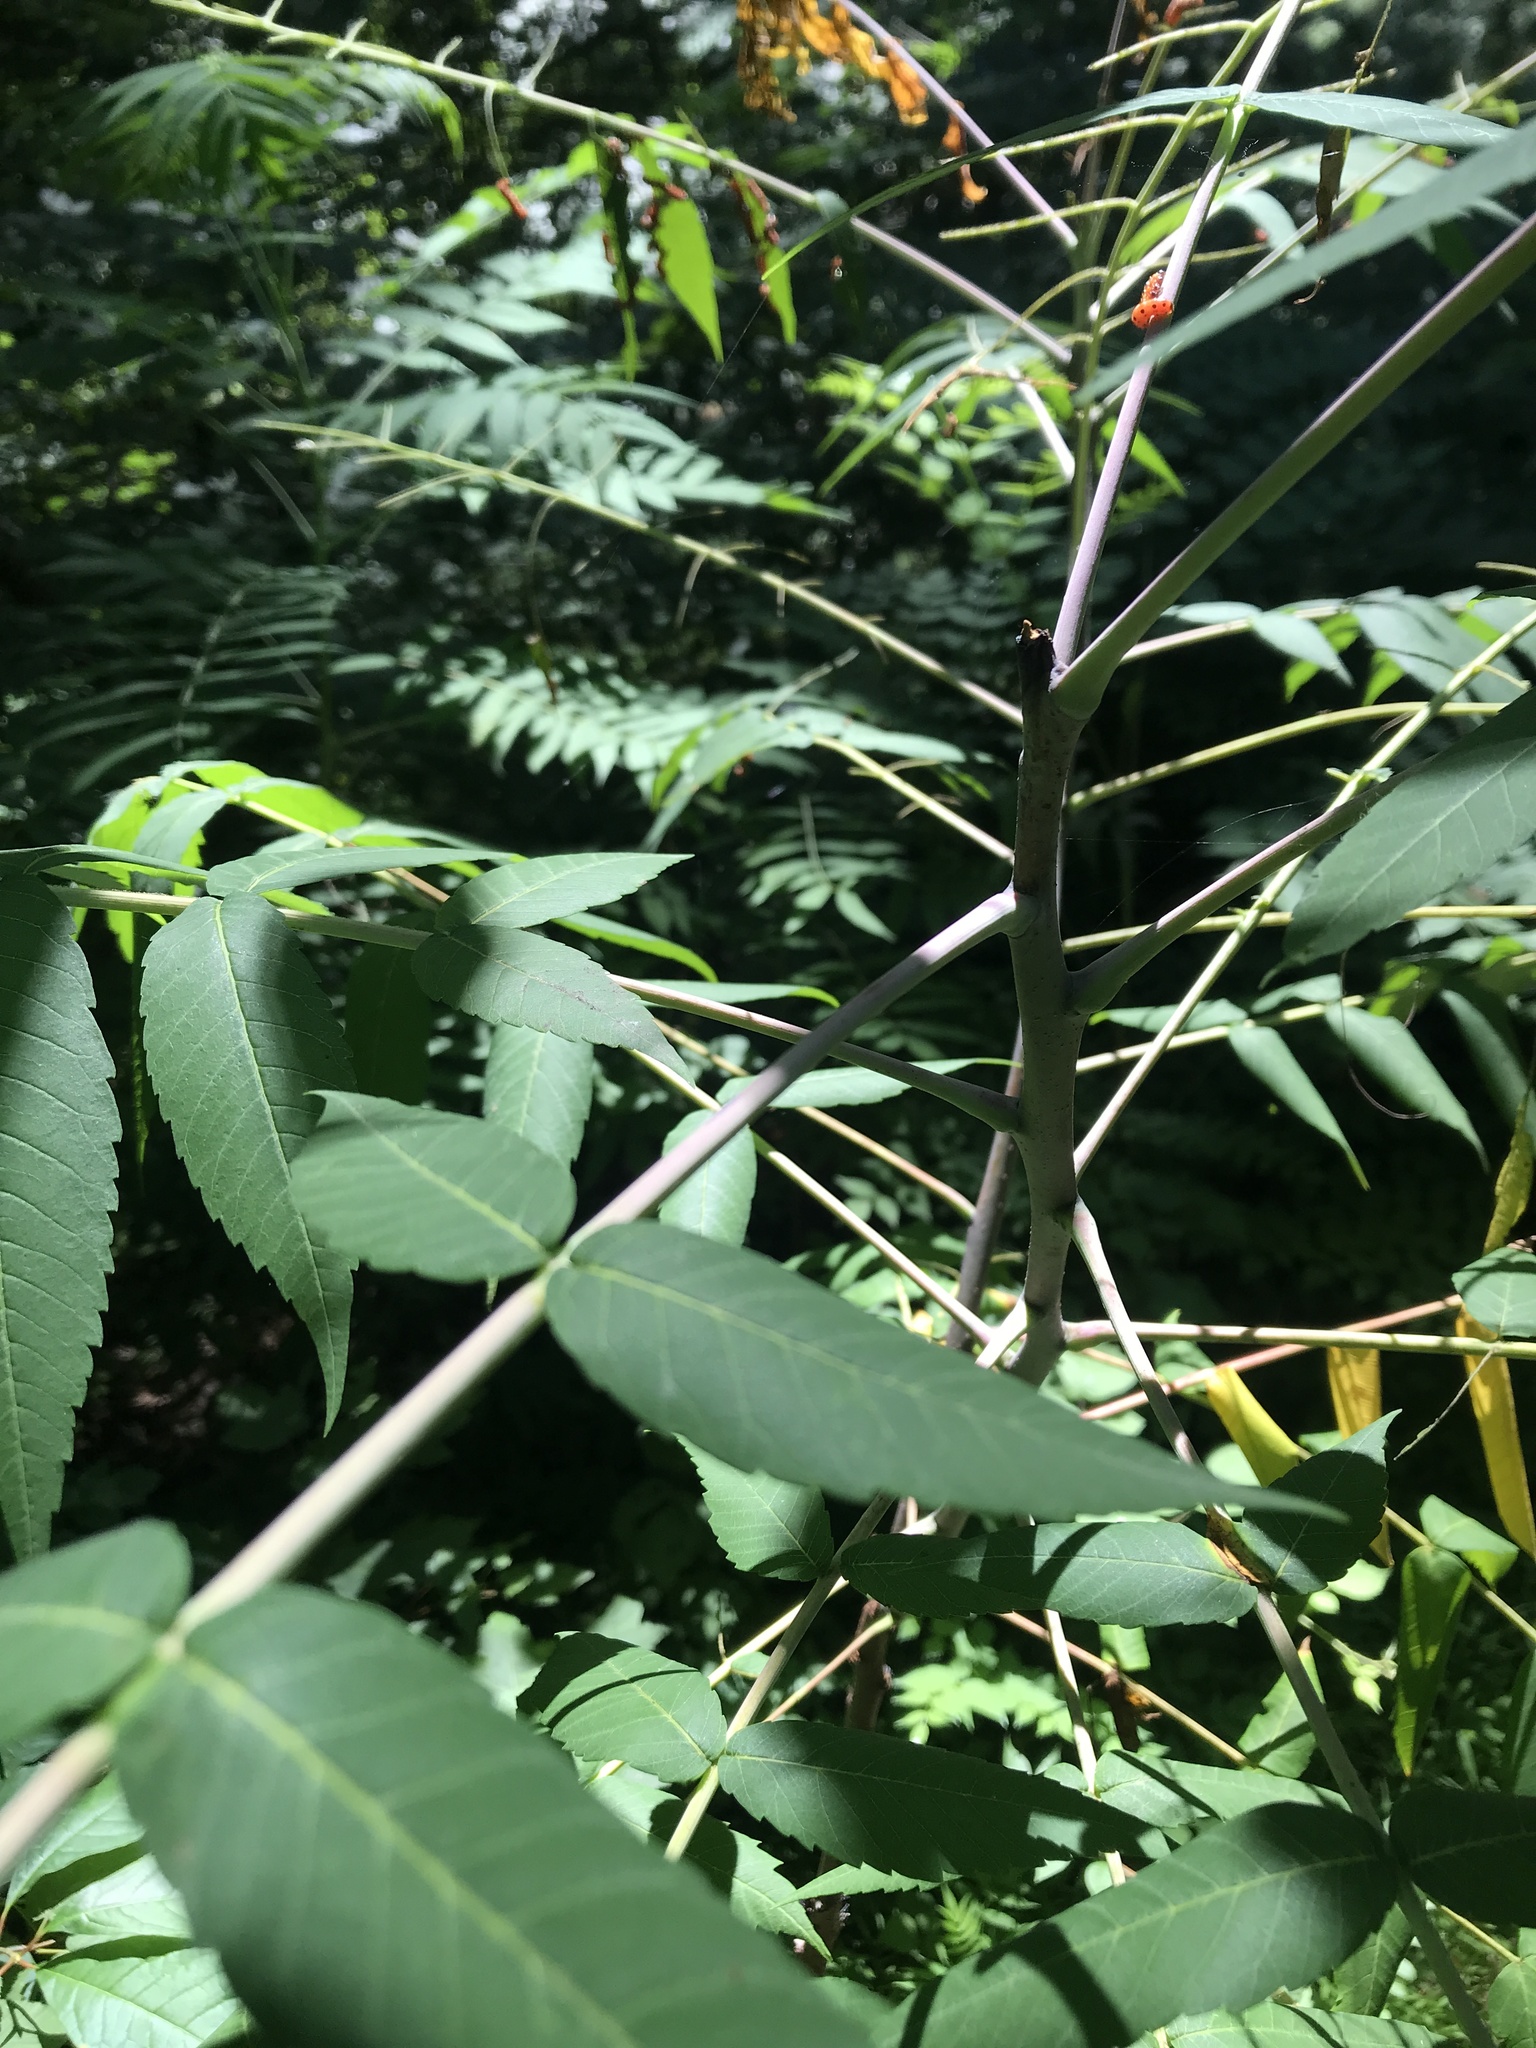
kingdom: Plantae
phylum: Tracheophyta
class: Magnoliopsida
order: Sapindales
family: Anacardiaceae
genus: Rhus
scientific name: Rhus glabra
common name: Scarlet sumac
